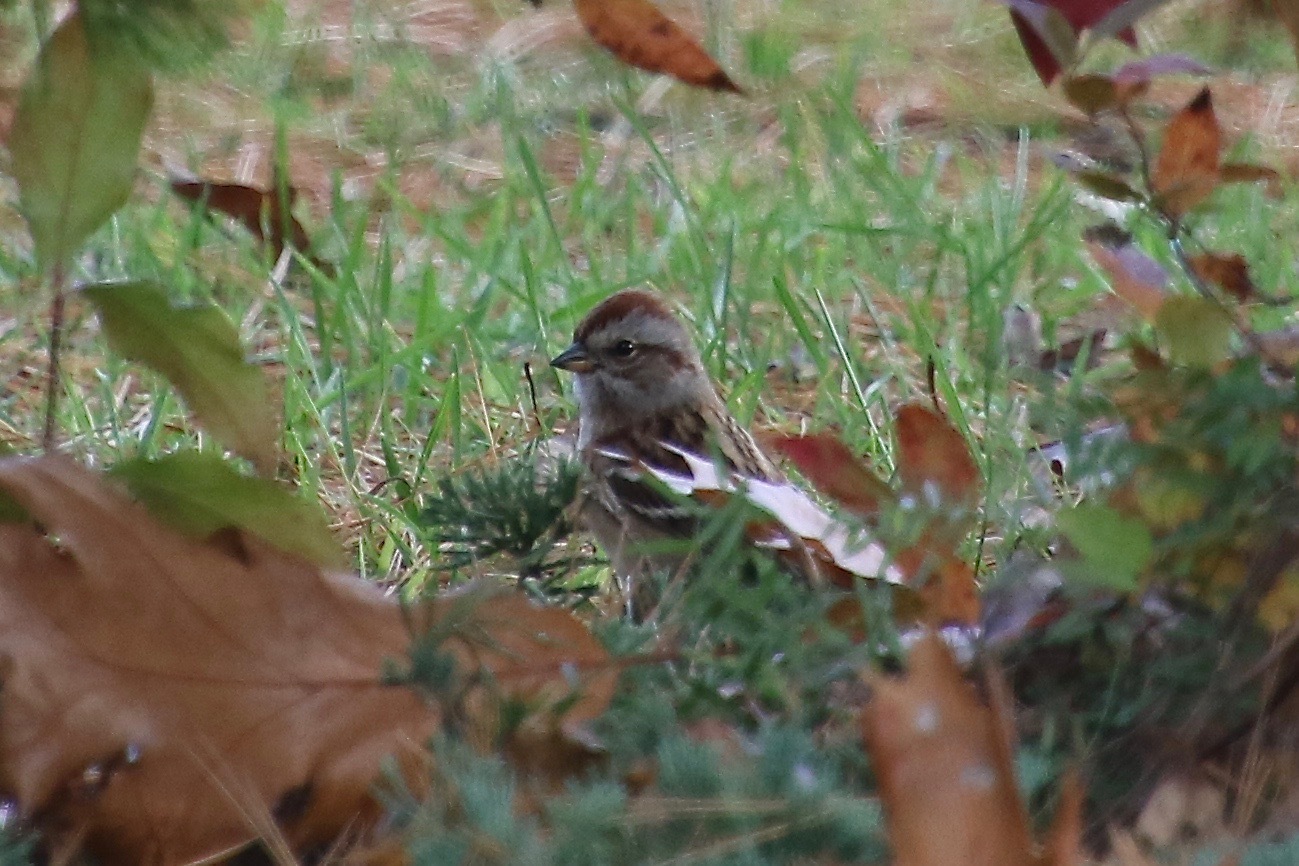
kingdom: Animalia
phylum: Chordata
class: Aves
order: Passeriformes
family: Passerellidae
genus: Spizelloides
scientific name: Spizelloides arborea
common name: American tree sparrow
